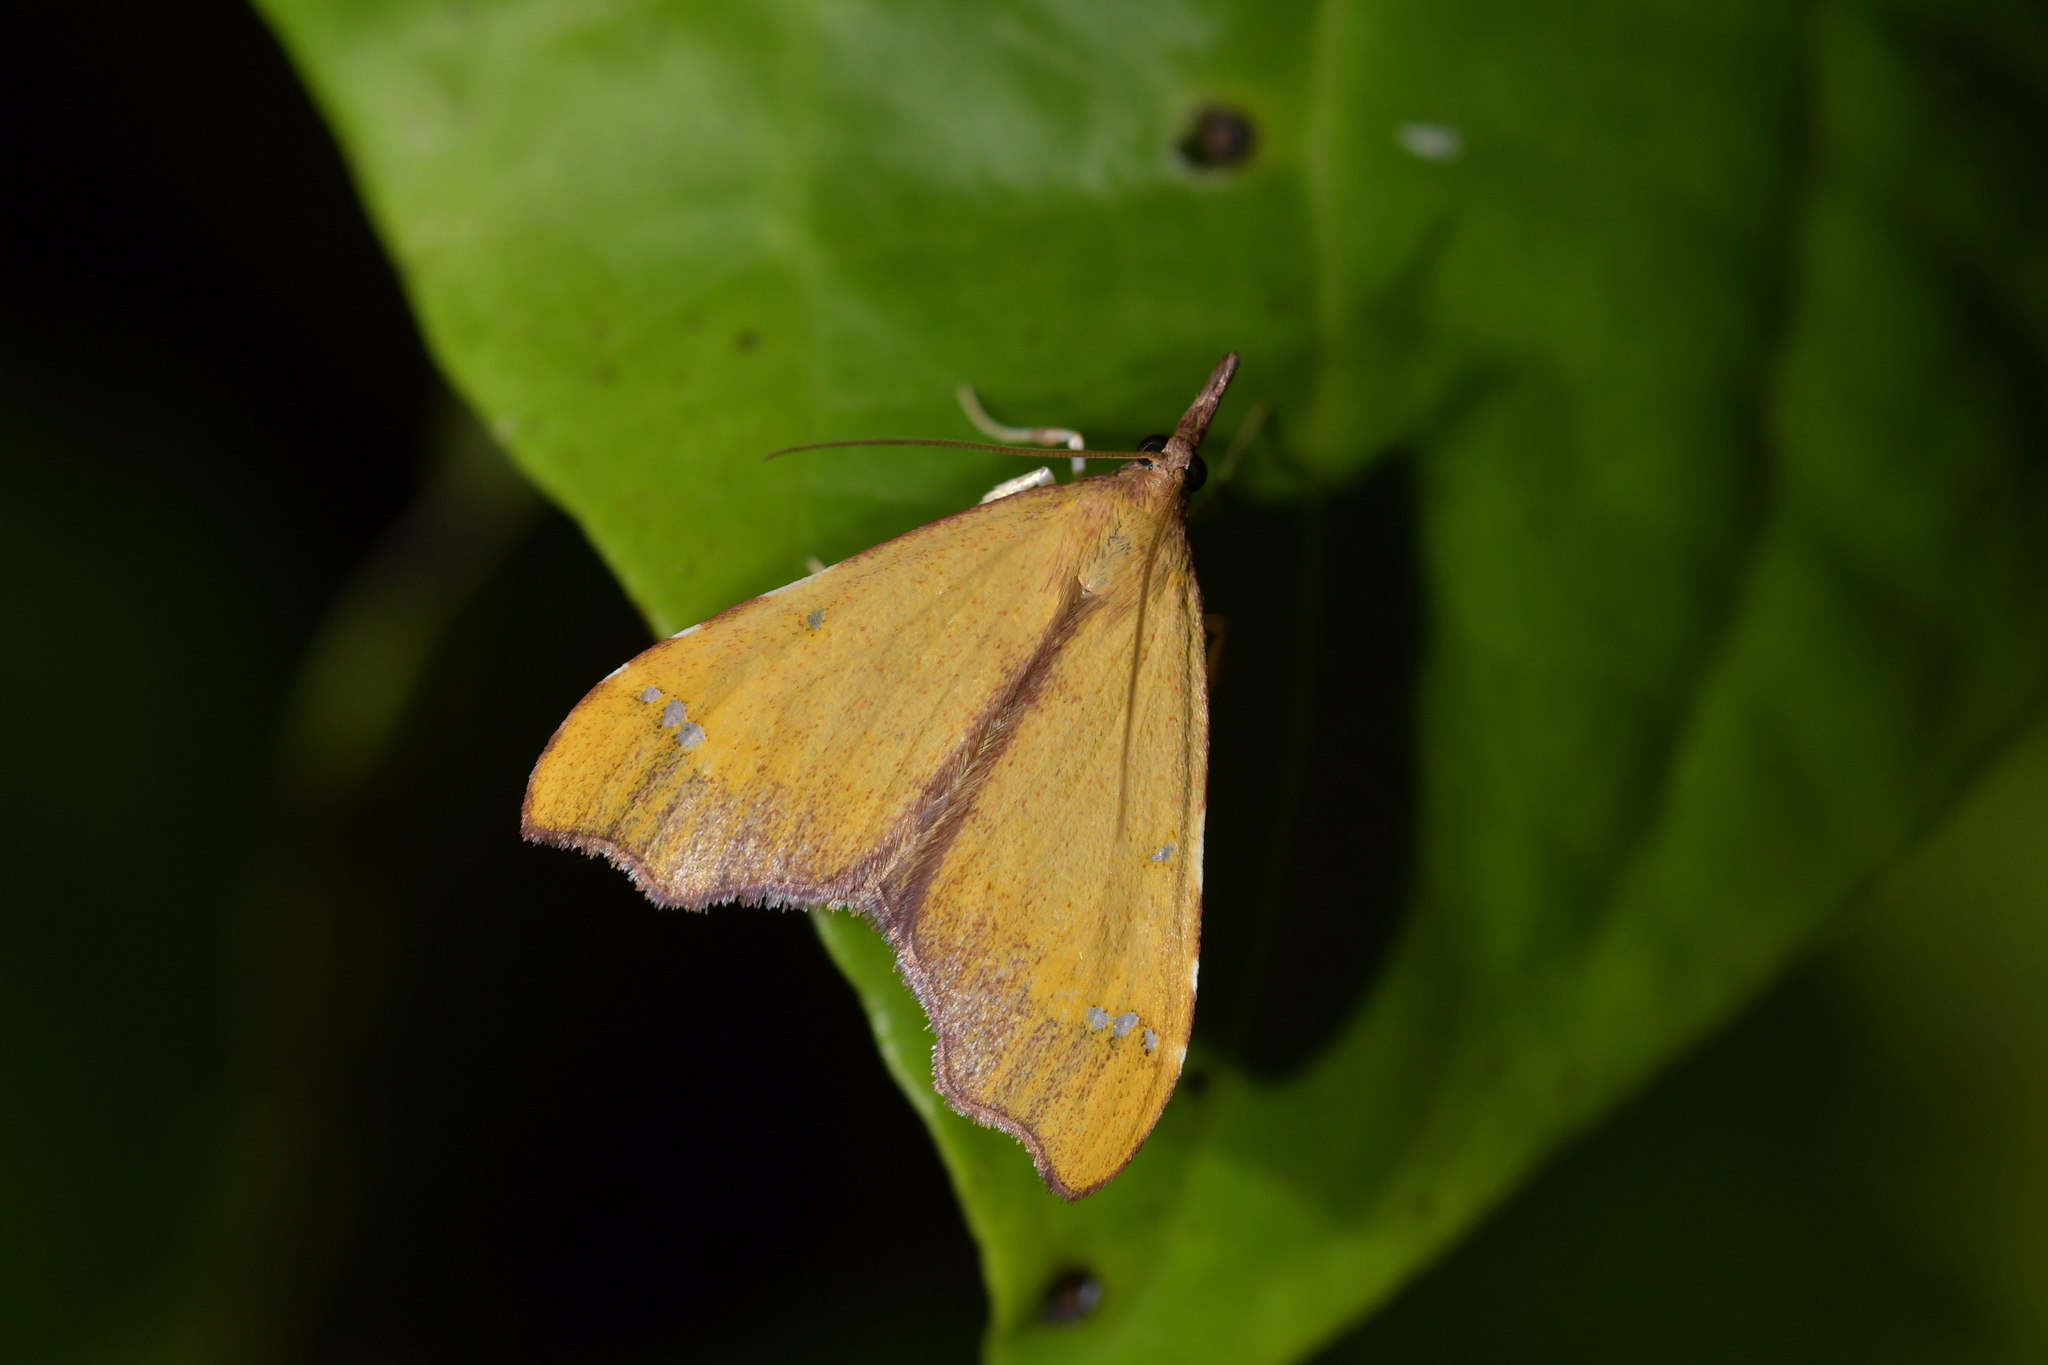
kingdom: Animalia
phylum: Arthropoda
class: Insecta
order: Lepidoptera
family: Crambidae
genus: Deana
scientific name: Deana hybreasalis
